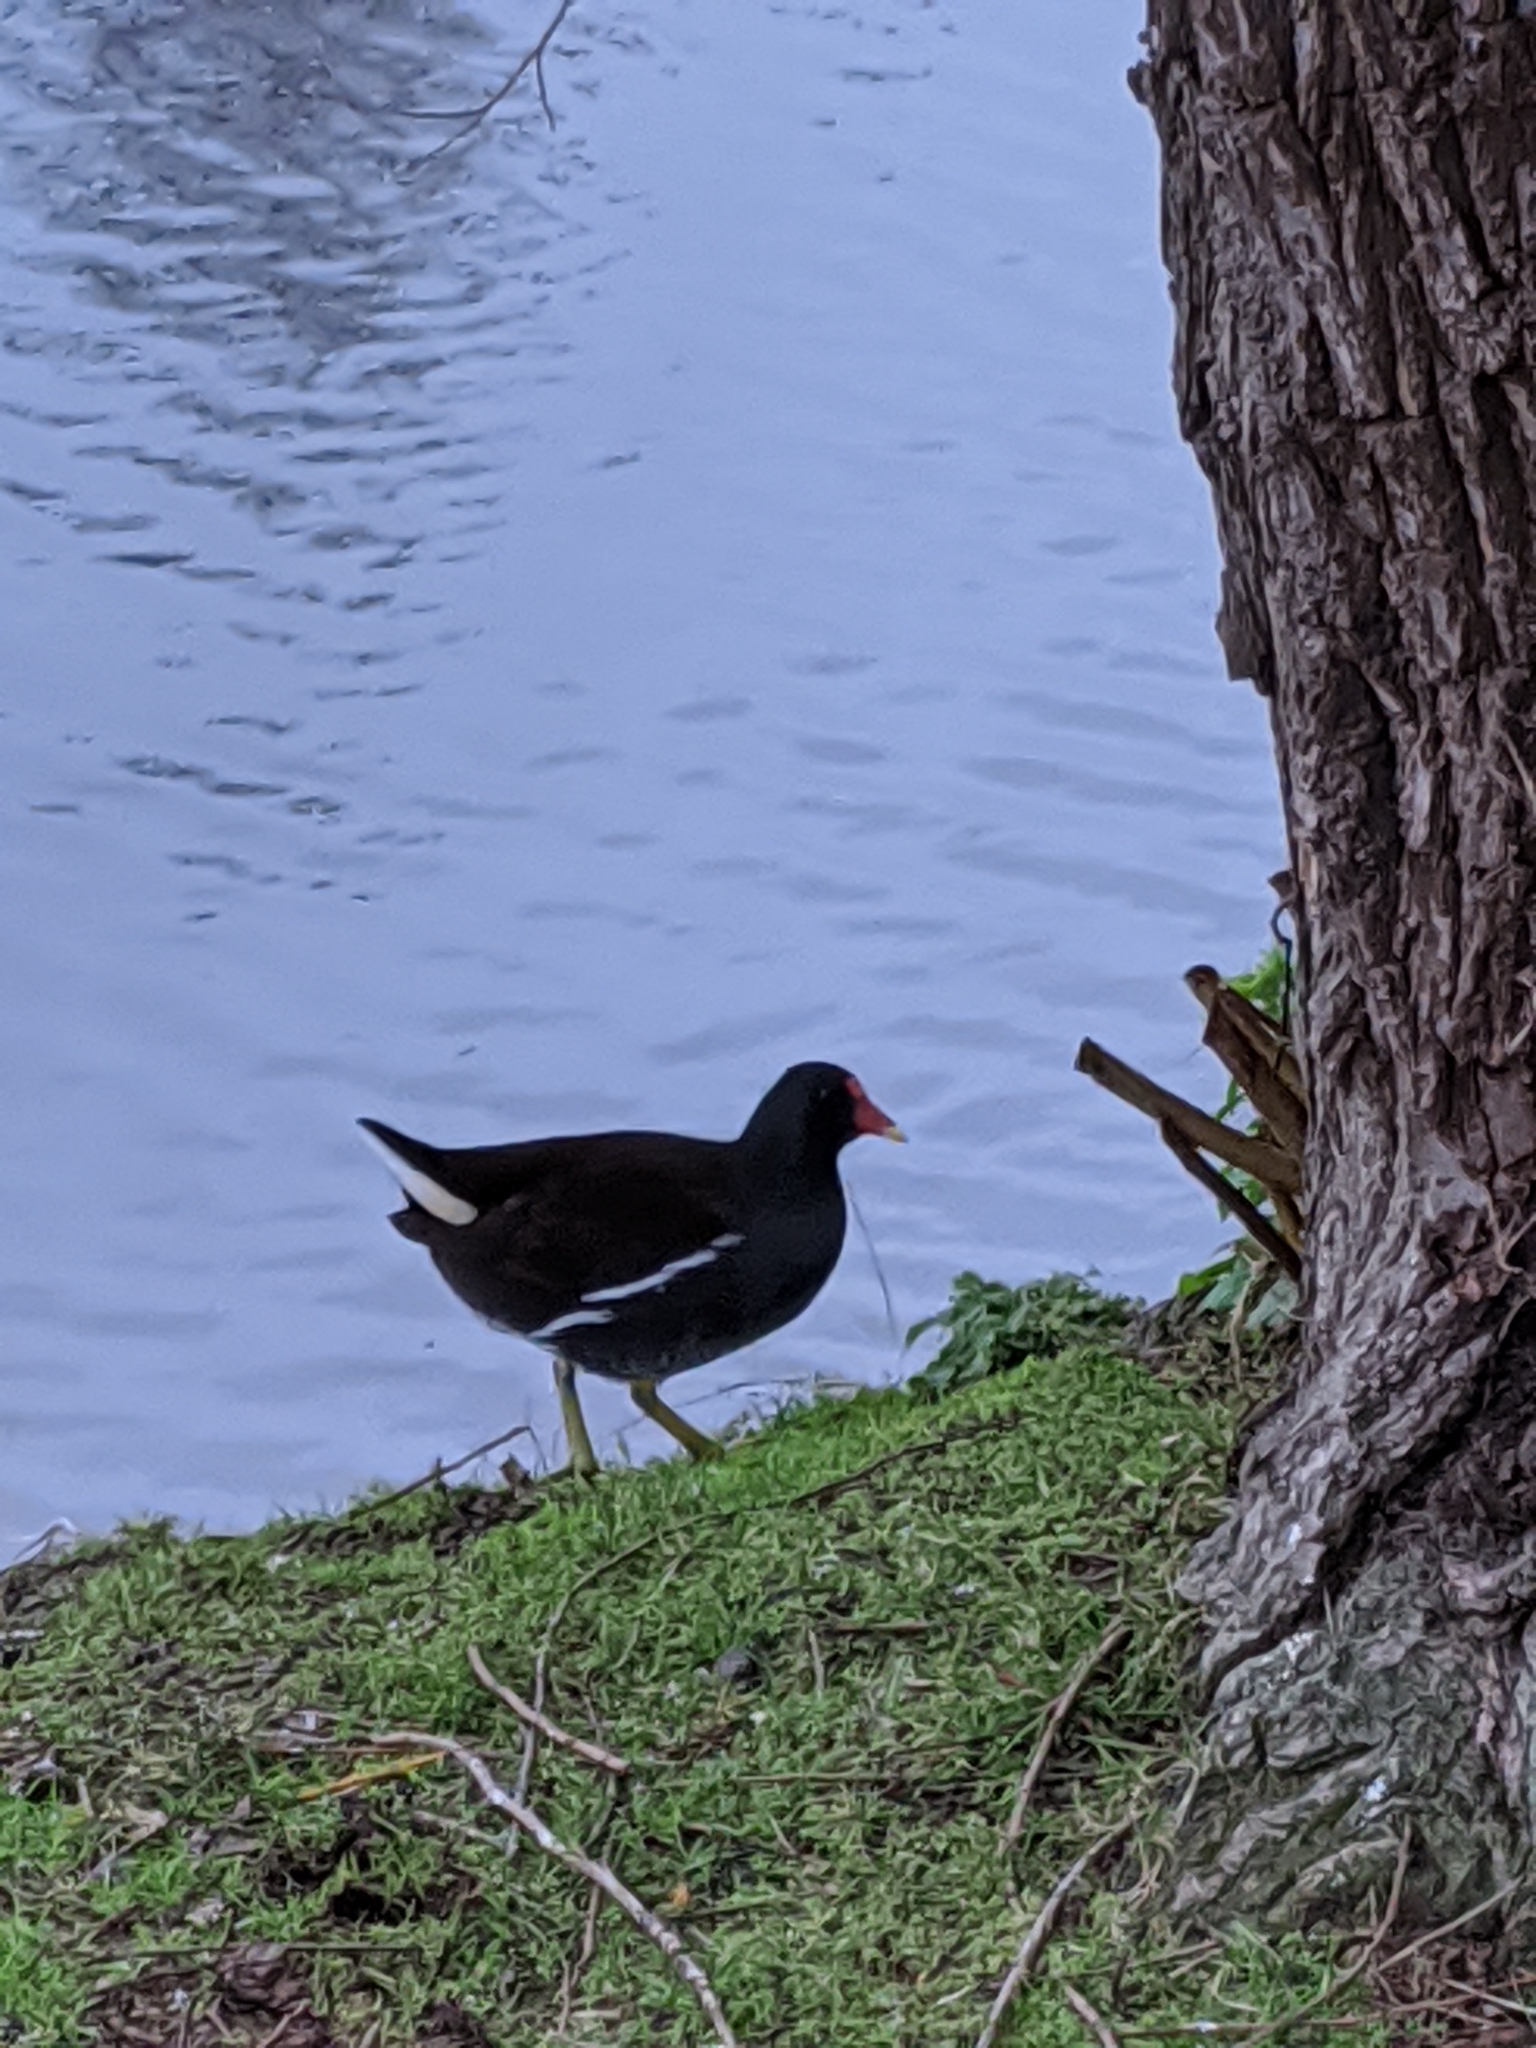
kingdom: Animalia
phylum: Chordata
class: Aves
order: Gruiformes
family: Rallidae
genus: Gallinula
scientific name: Gallinula chloropus
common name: Common moorhen
